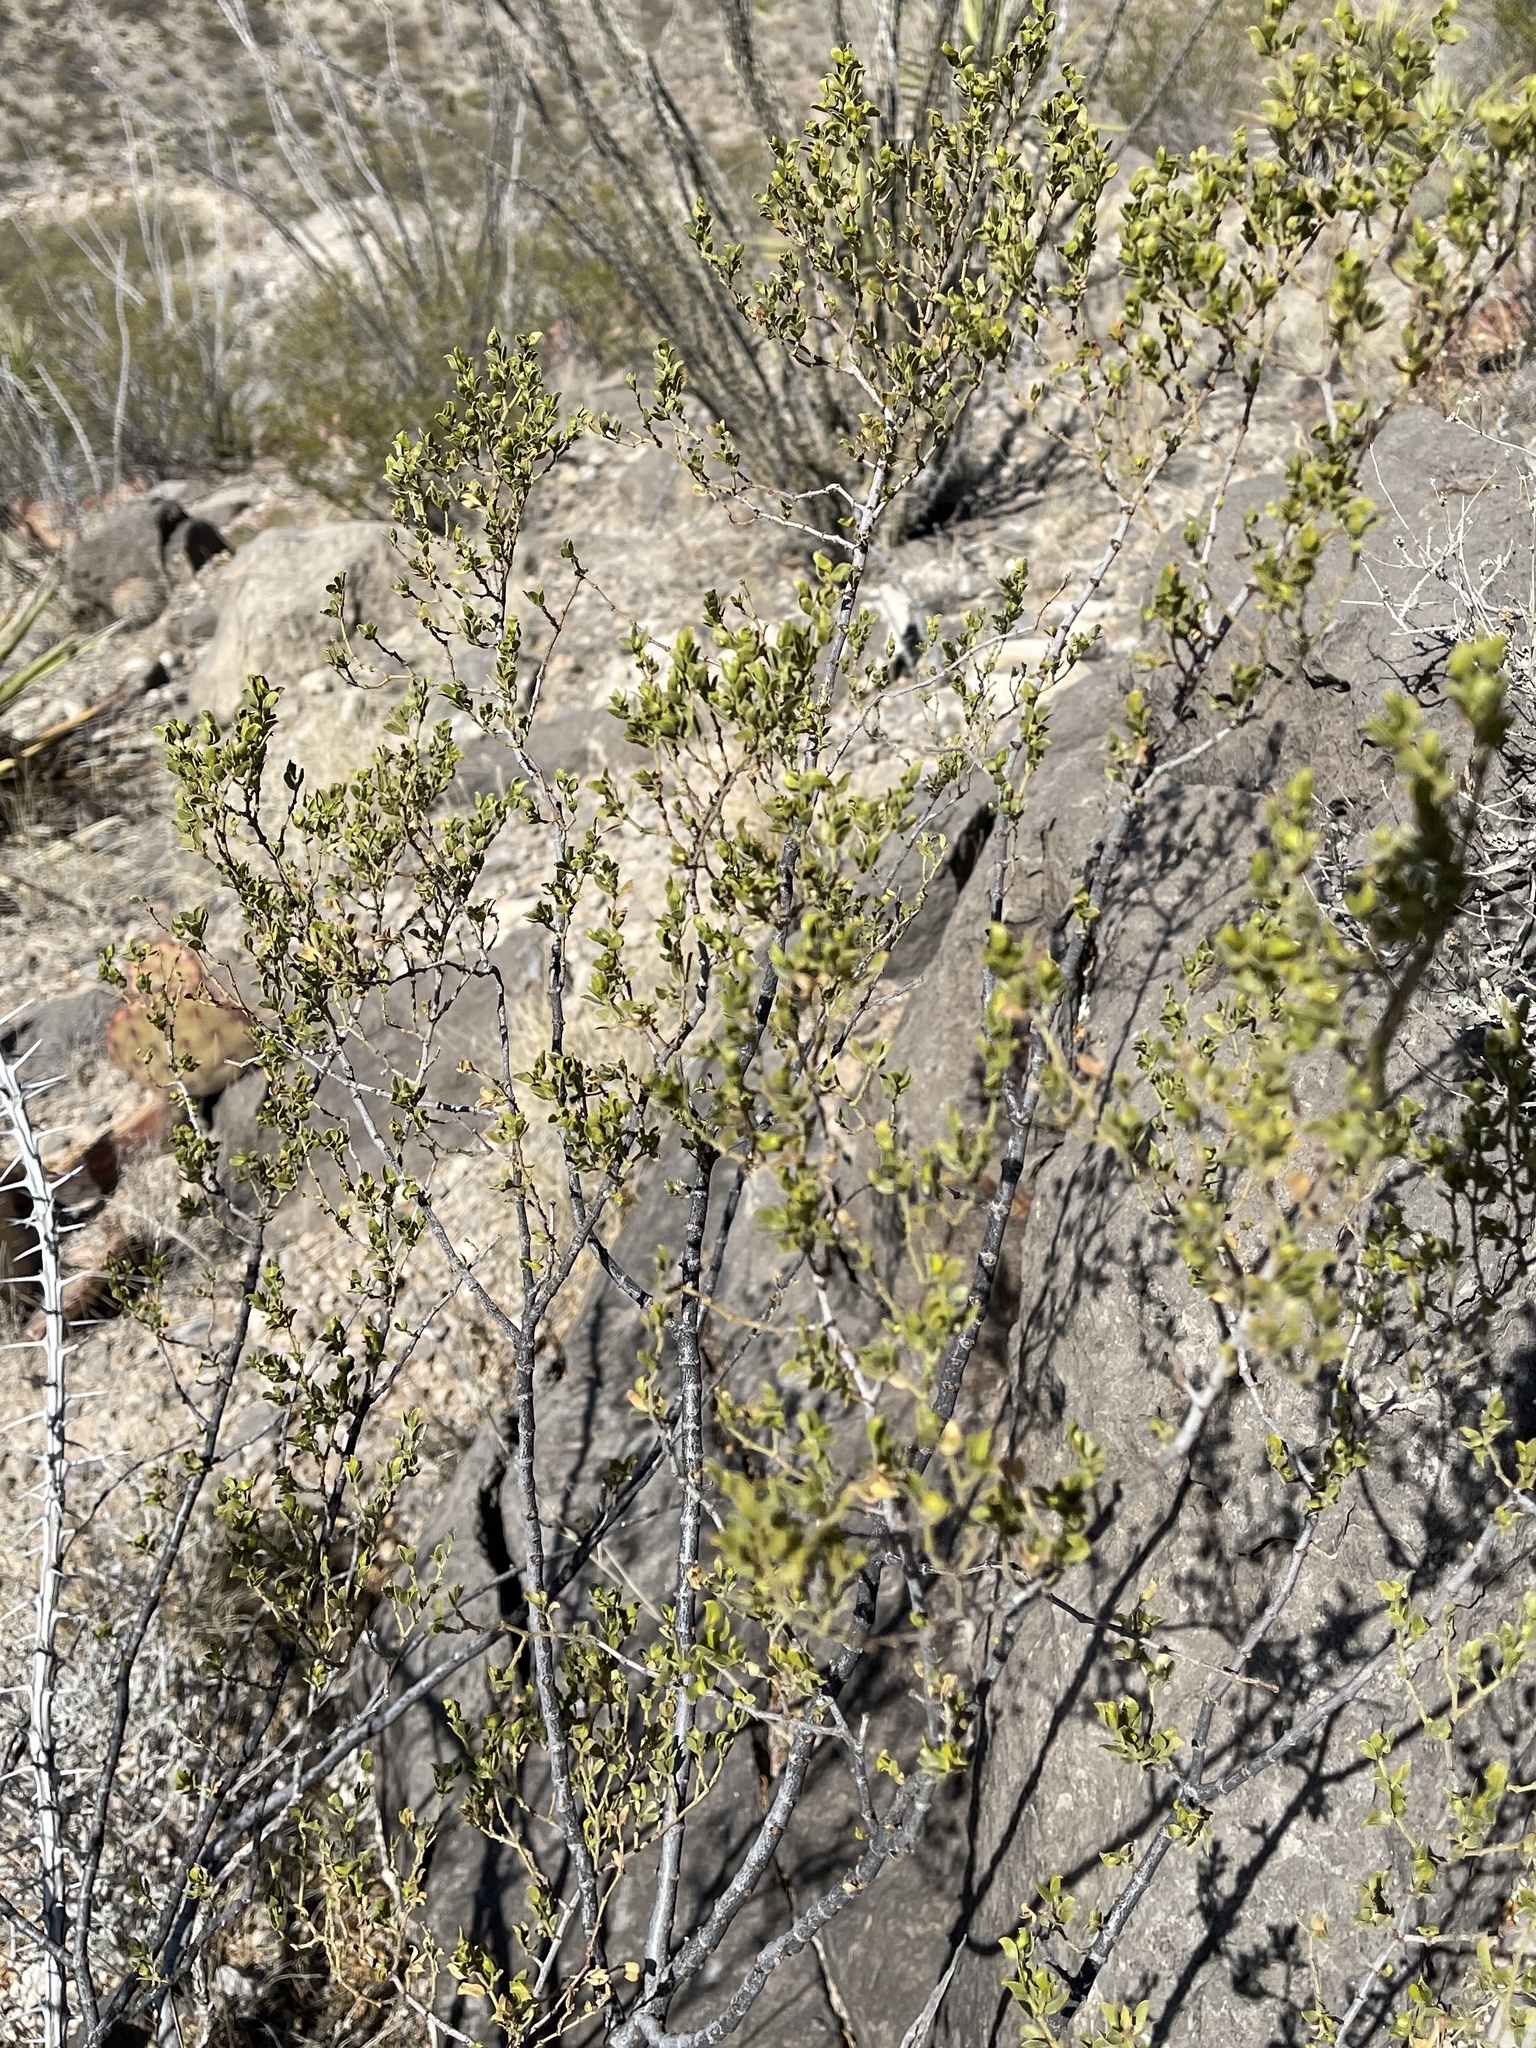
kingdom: Plantae
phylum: Tracheophyta
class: Magnoliopsida
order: Zygophyllales
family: Zygophyllaceae
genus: Larrea
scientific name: Larrea tridentata
